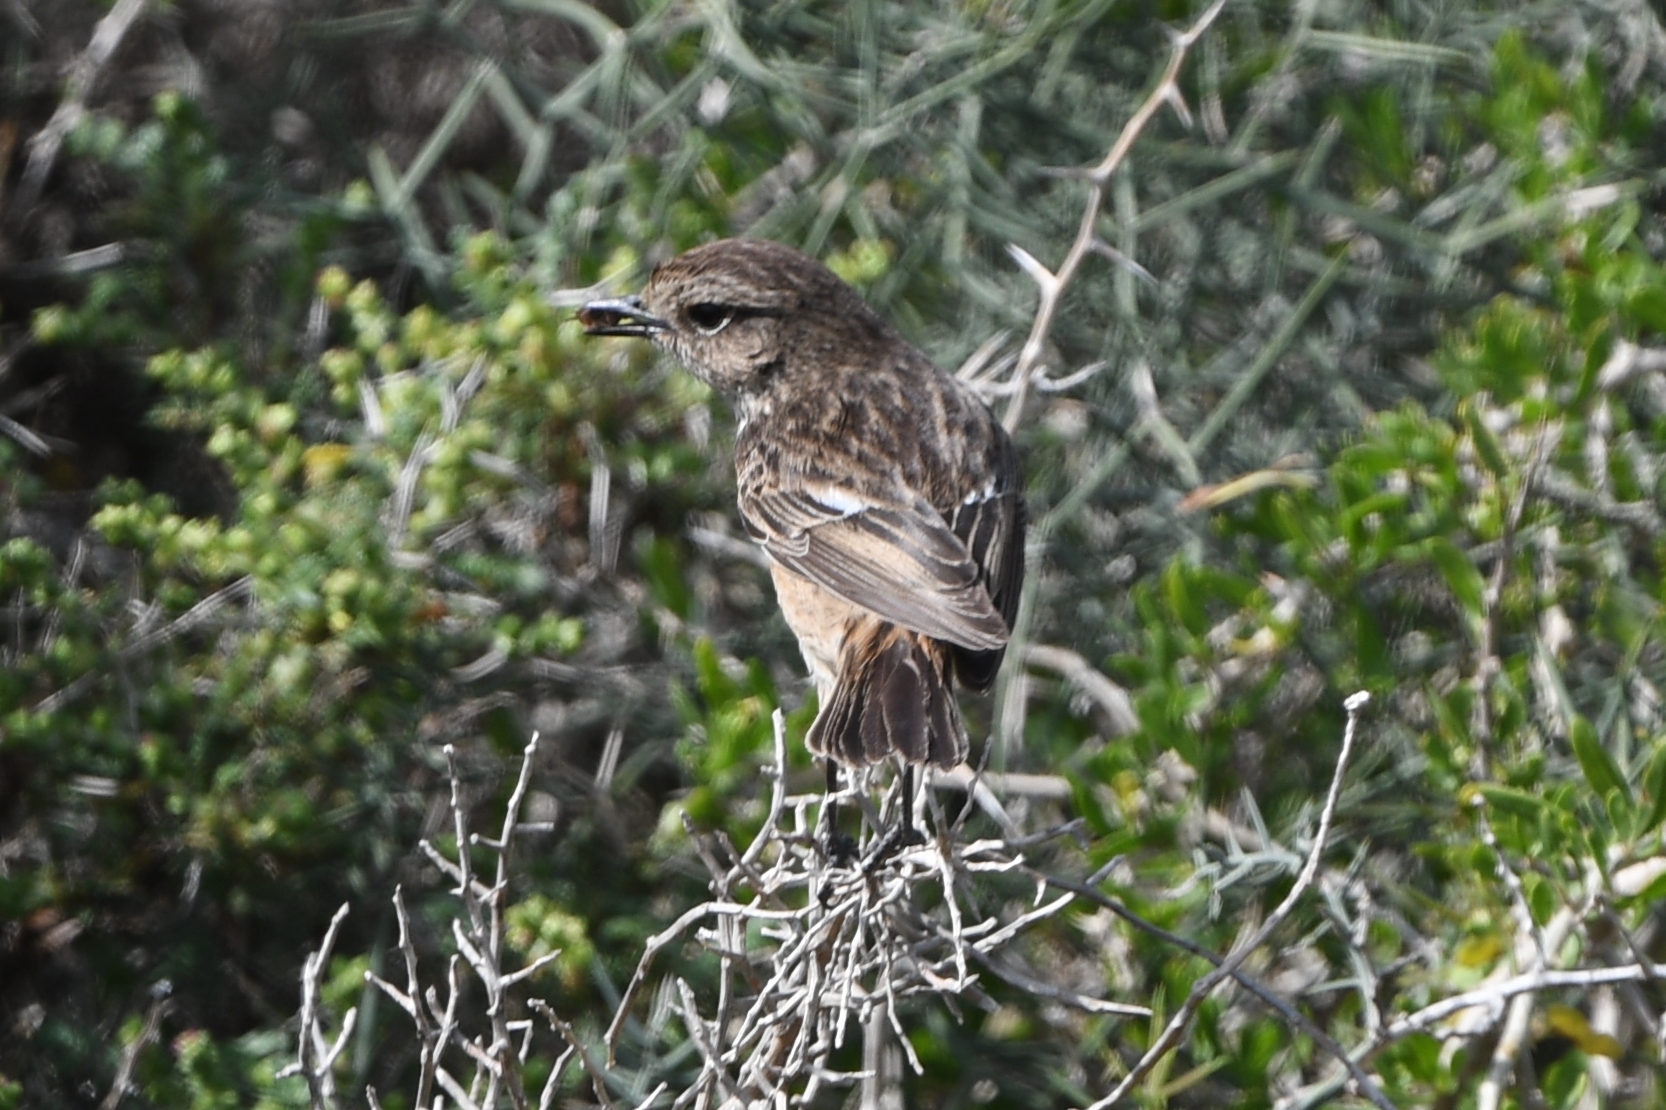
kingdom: Animalia
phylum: Chordata
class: Aves
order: Passeriformes
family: Muscicapidae
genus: Saxicola
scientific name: Saxicola rubicola
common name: European stonechat
